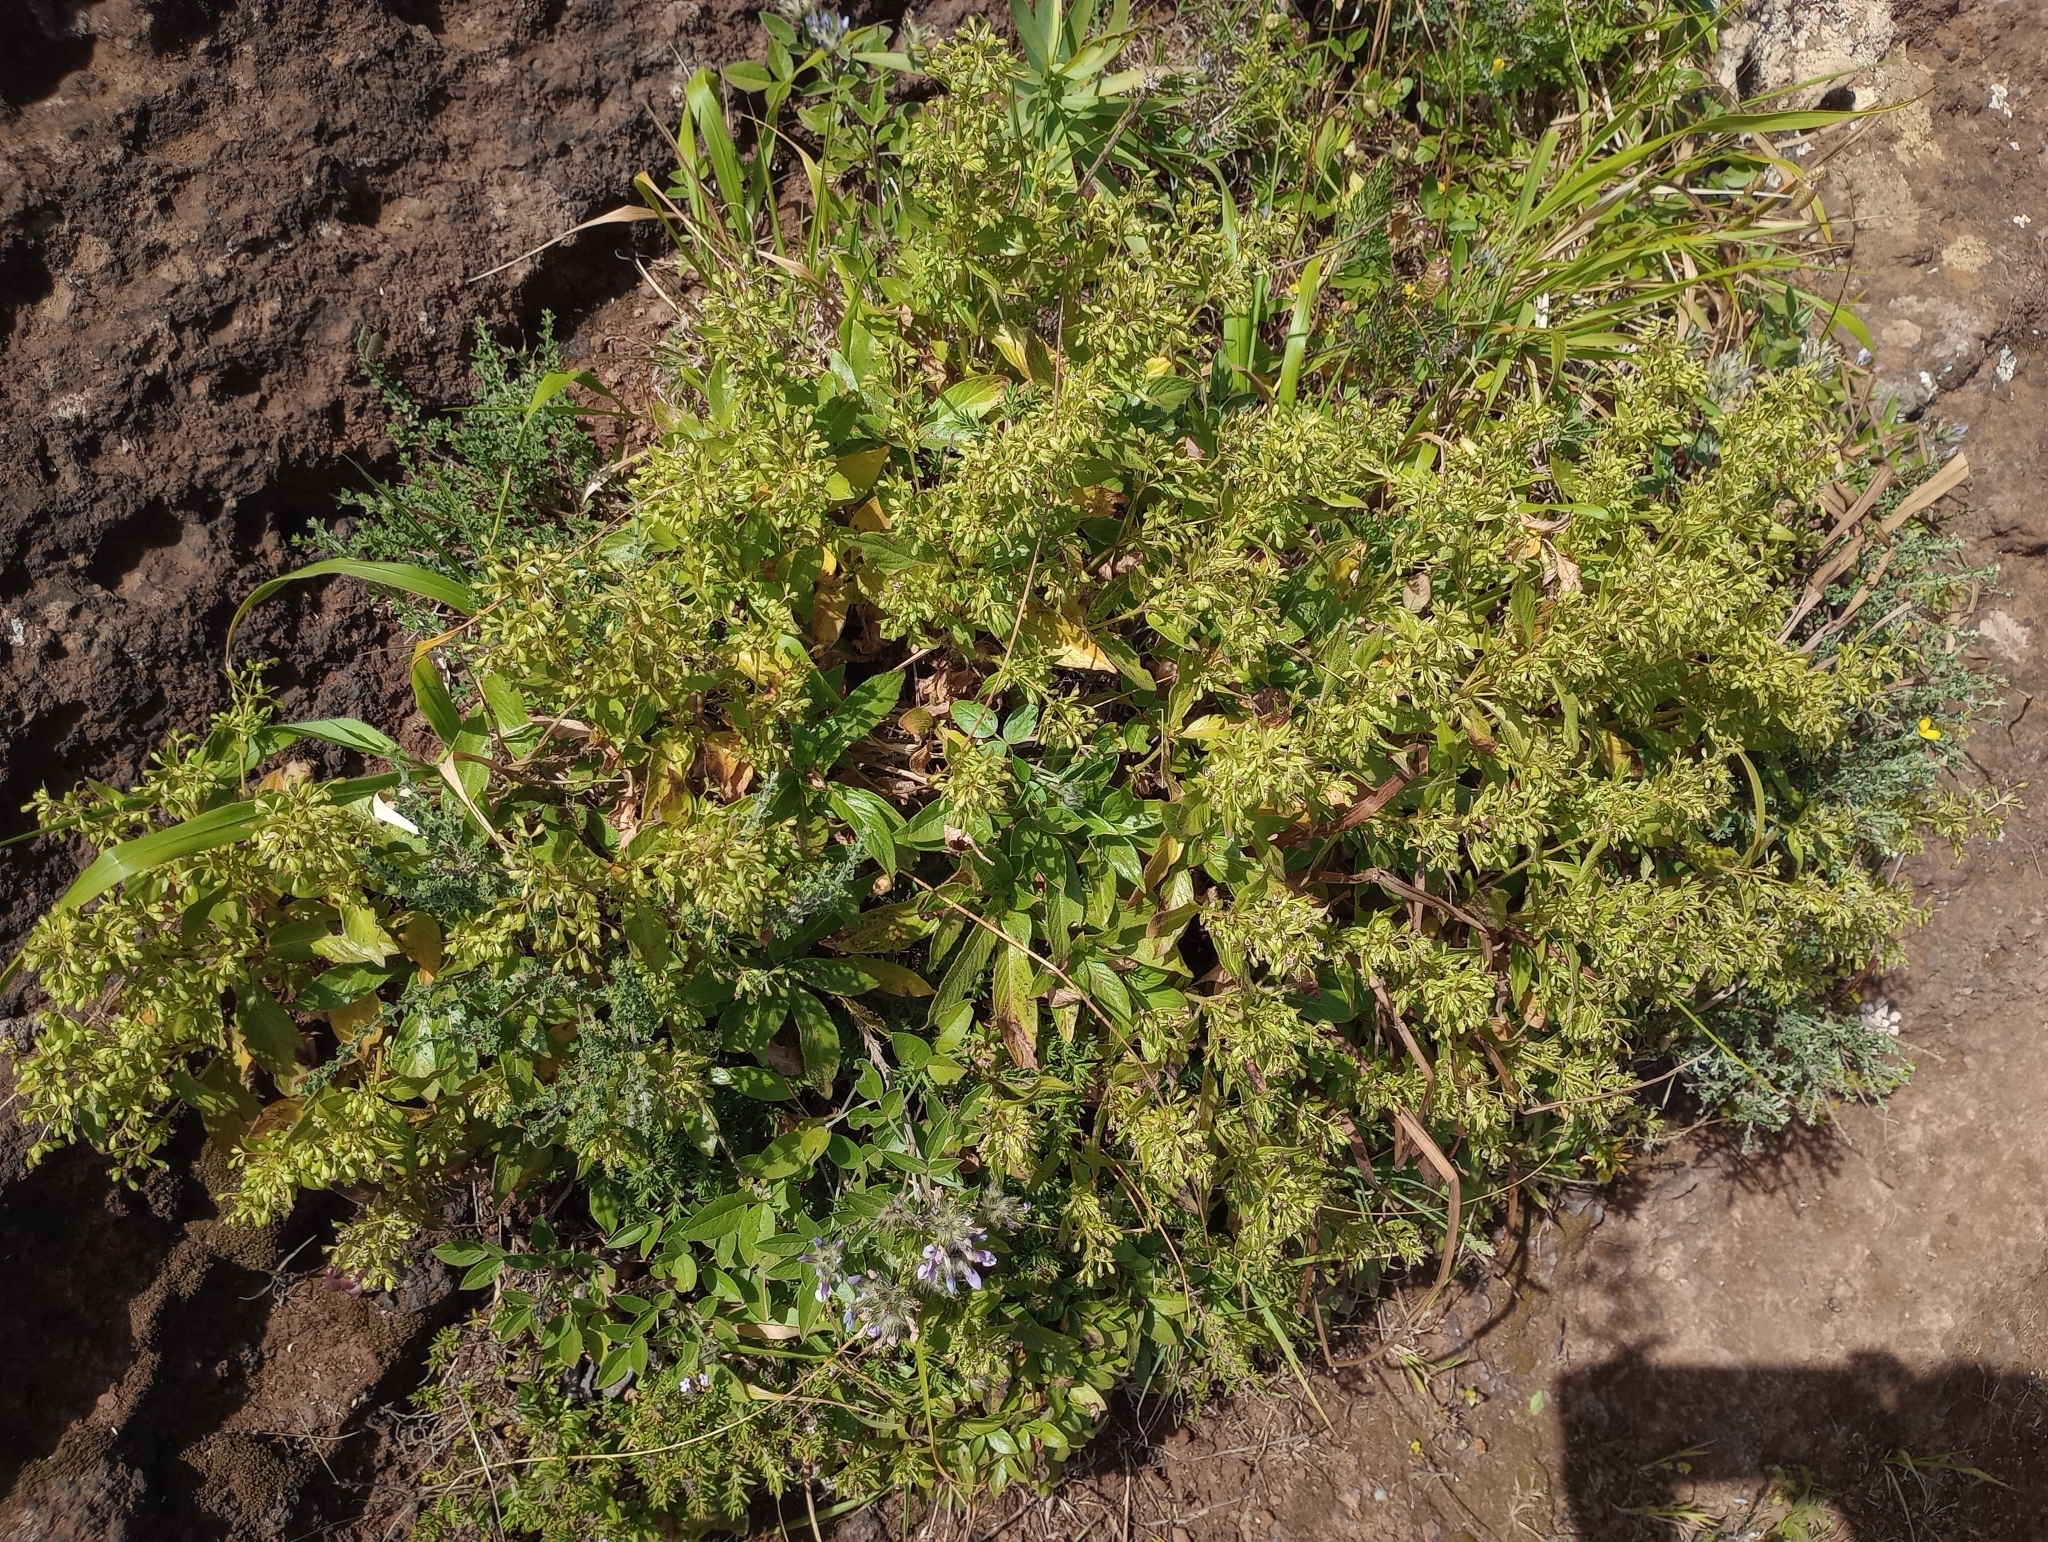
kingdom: Plantae
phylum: Tracheophyta
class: Magnoliopsida
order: Gentianales
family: Rubiaceae
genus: Phyllis
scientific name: Phyllis nobla
